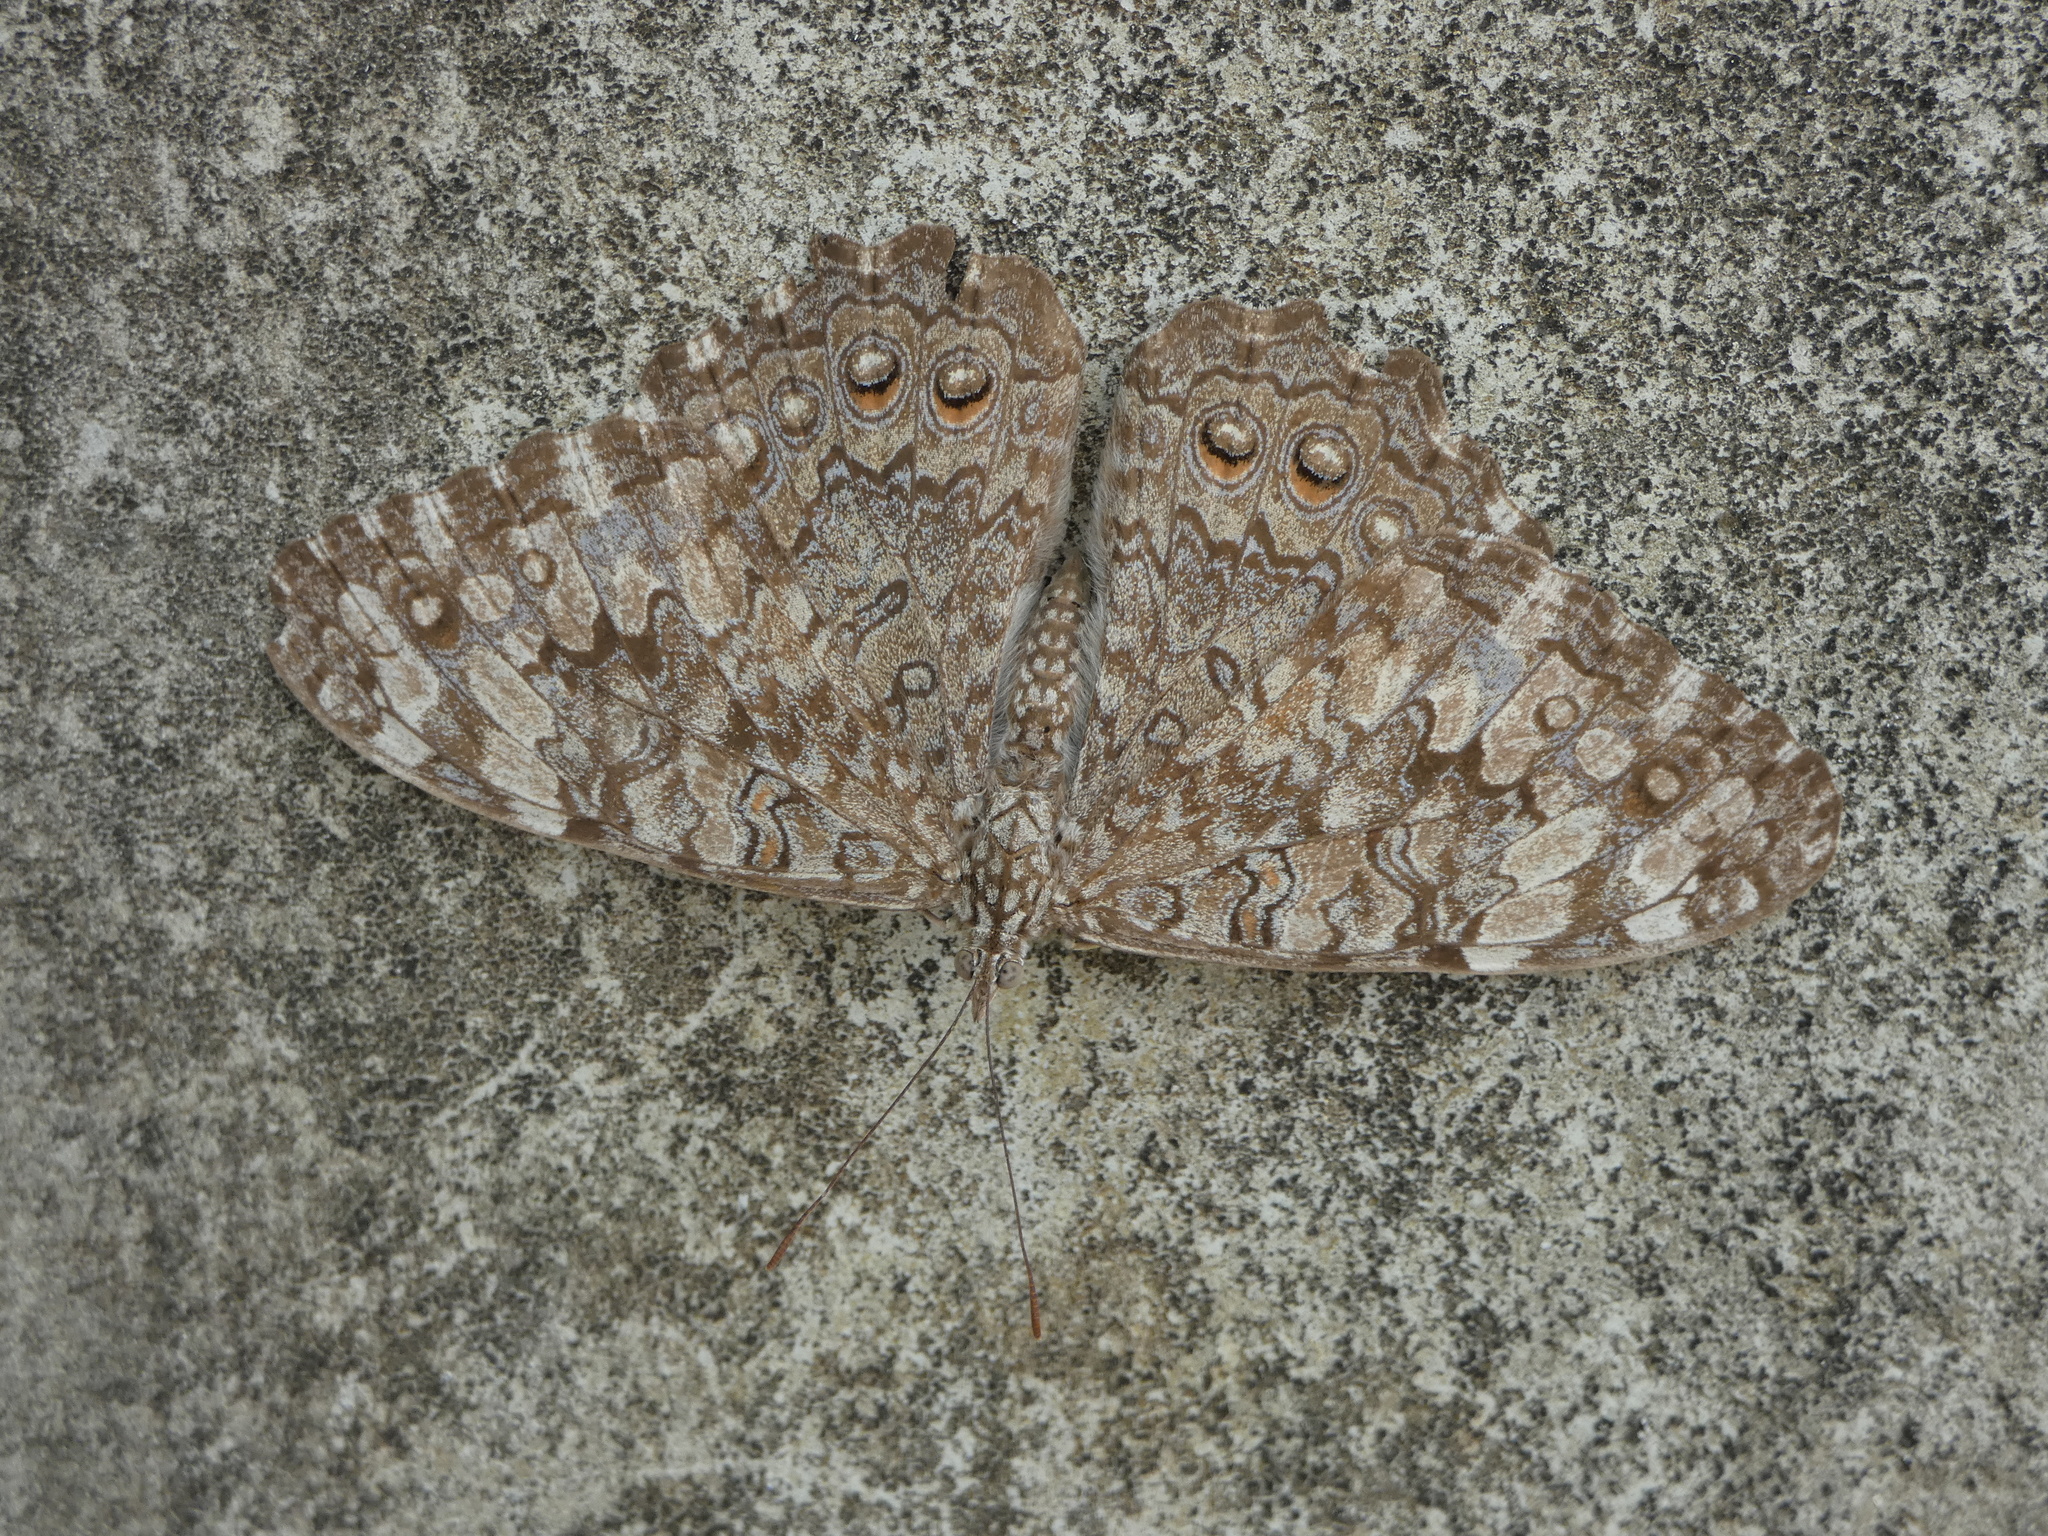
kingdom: Animalia
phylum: Arthropoda
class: Insecta
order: Lepidoptera
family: Nymphalidae
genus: Hamadryas
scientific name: Hamadryas februa
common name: Gray cracker
